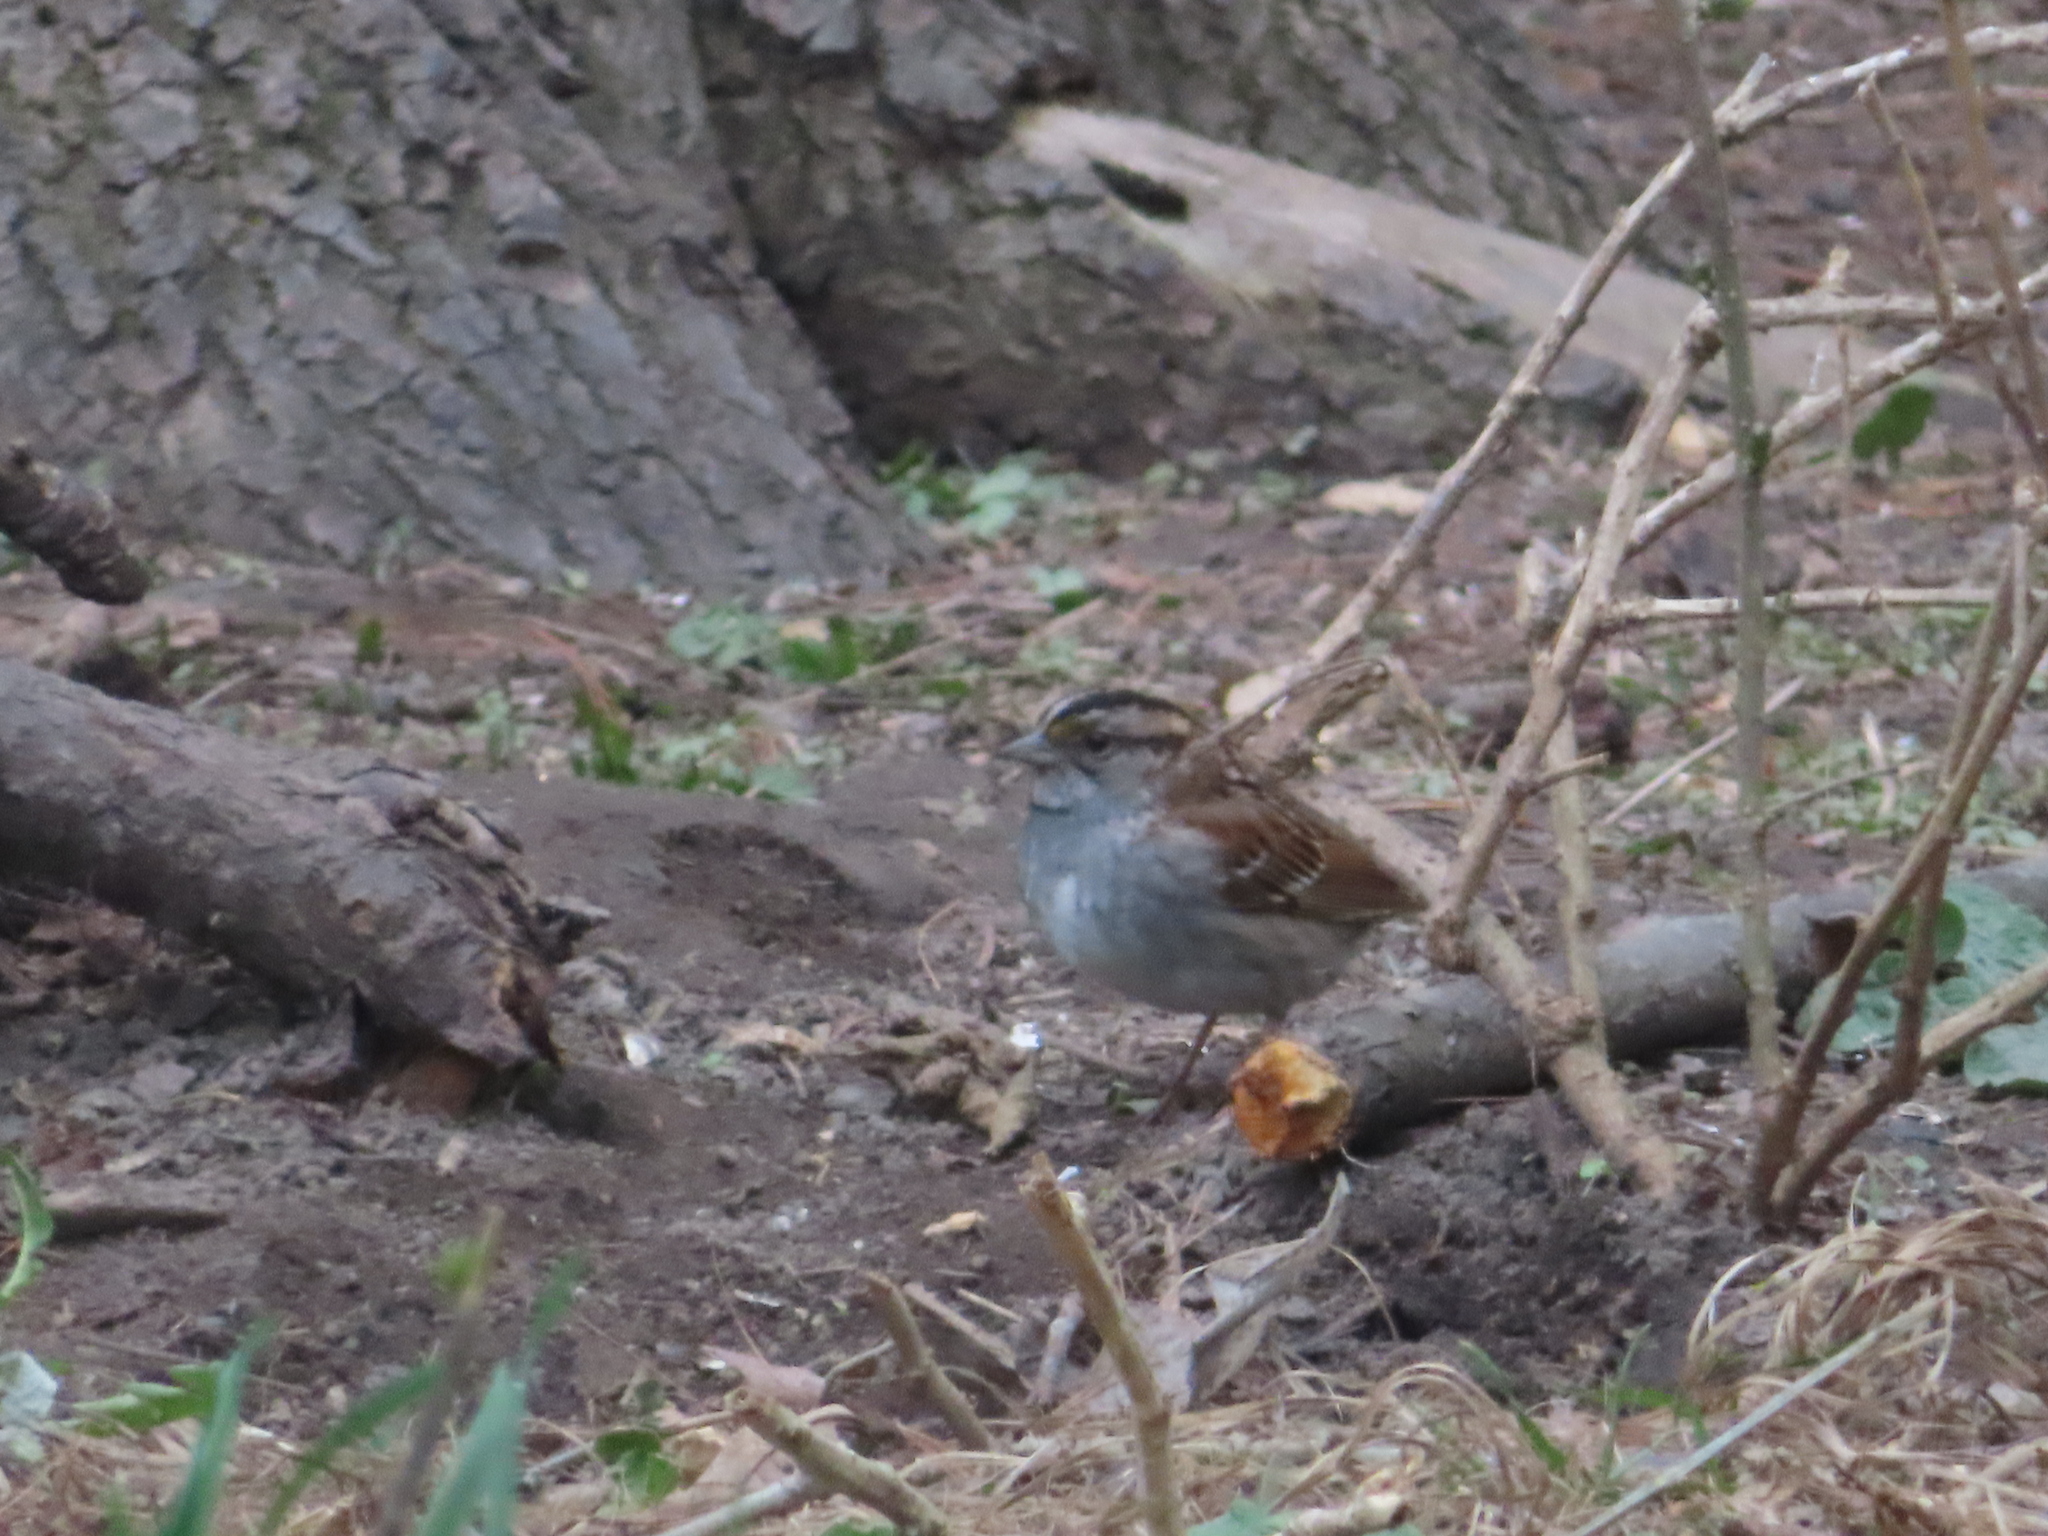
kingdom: Animalia
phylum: Chordata
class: Aves
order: Passeriformes
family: Passerellidae
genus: Zonotrichia
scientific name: Zonotrichia albicollis
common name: White-throated sparrow
